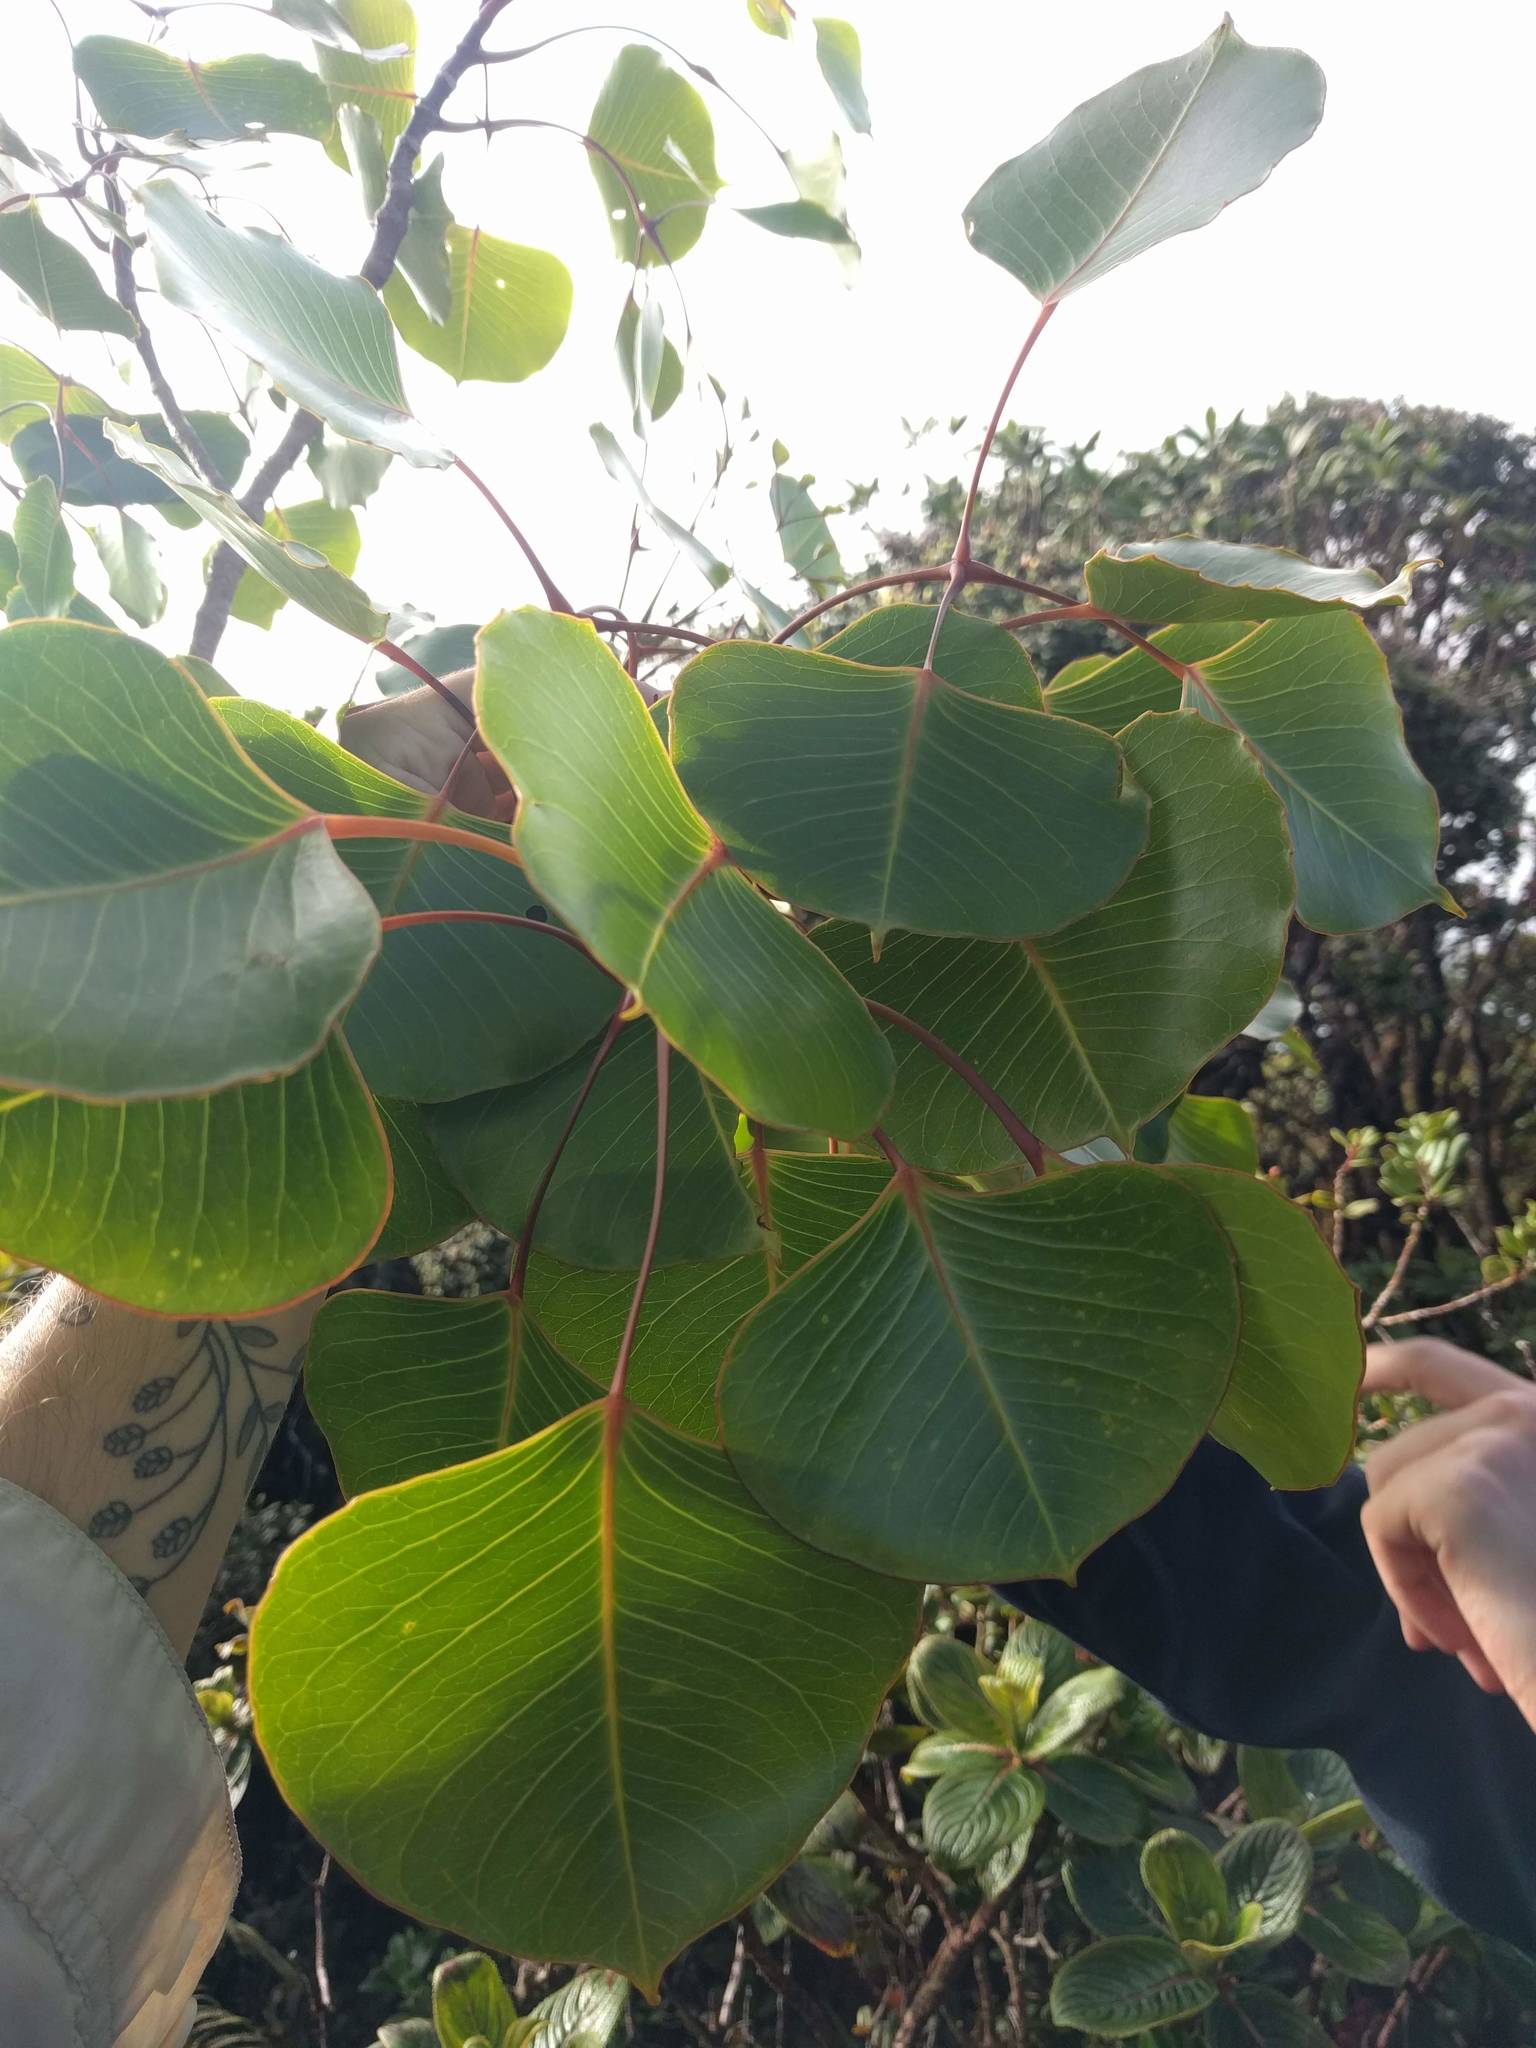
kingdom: Plantae
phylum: Tracheophyta
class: Magnoliopsida
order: Apiales
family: Araliaceae
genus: Cheirodendron
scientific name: Cheirodendron platyphyllum
